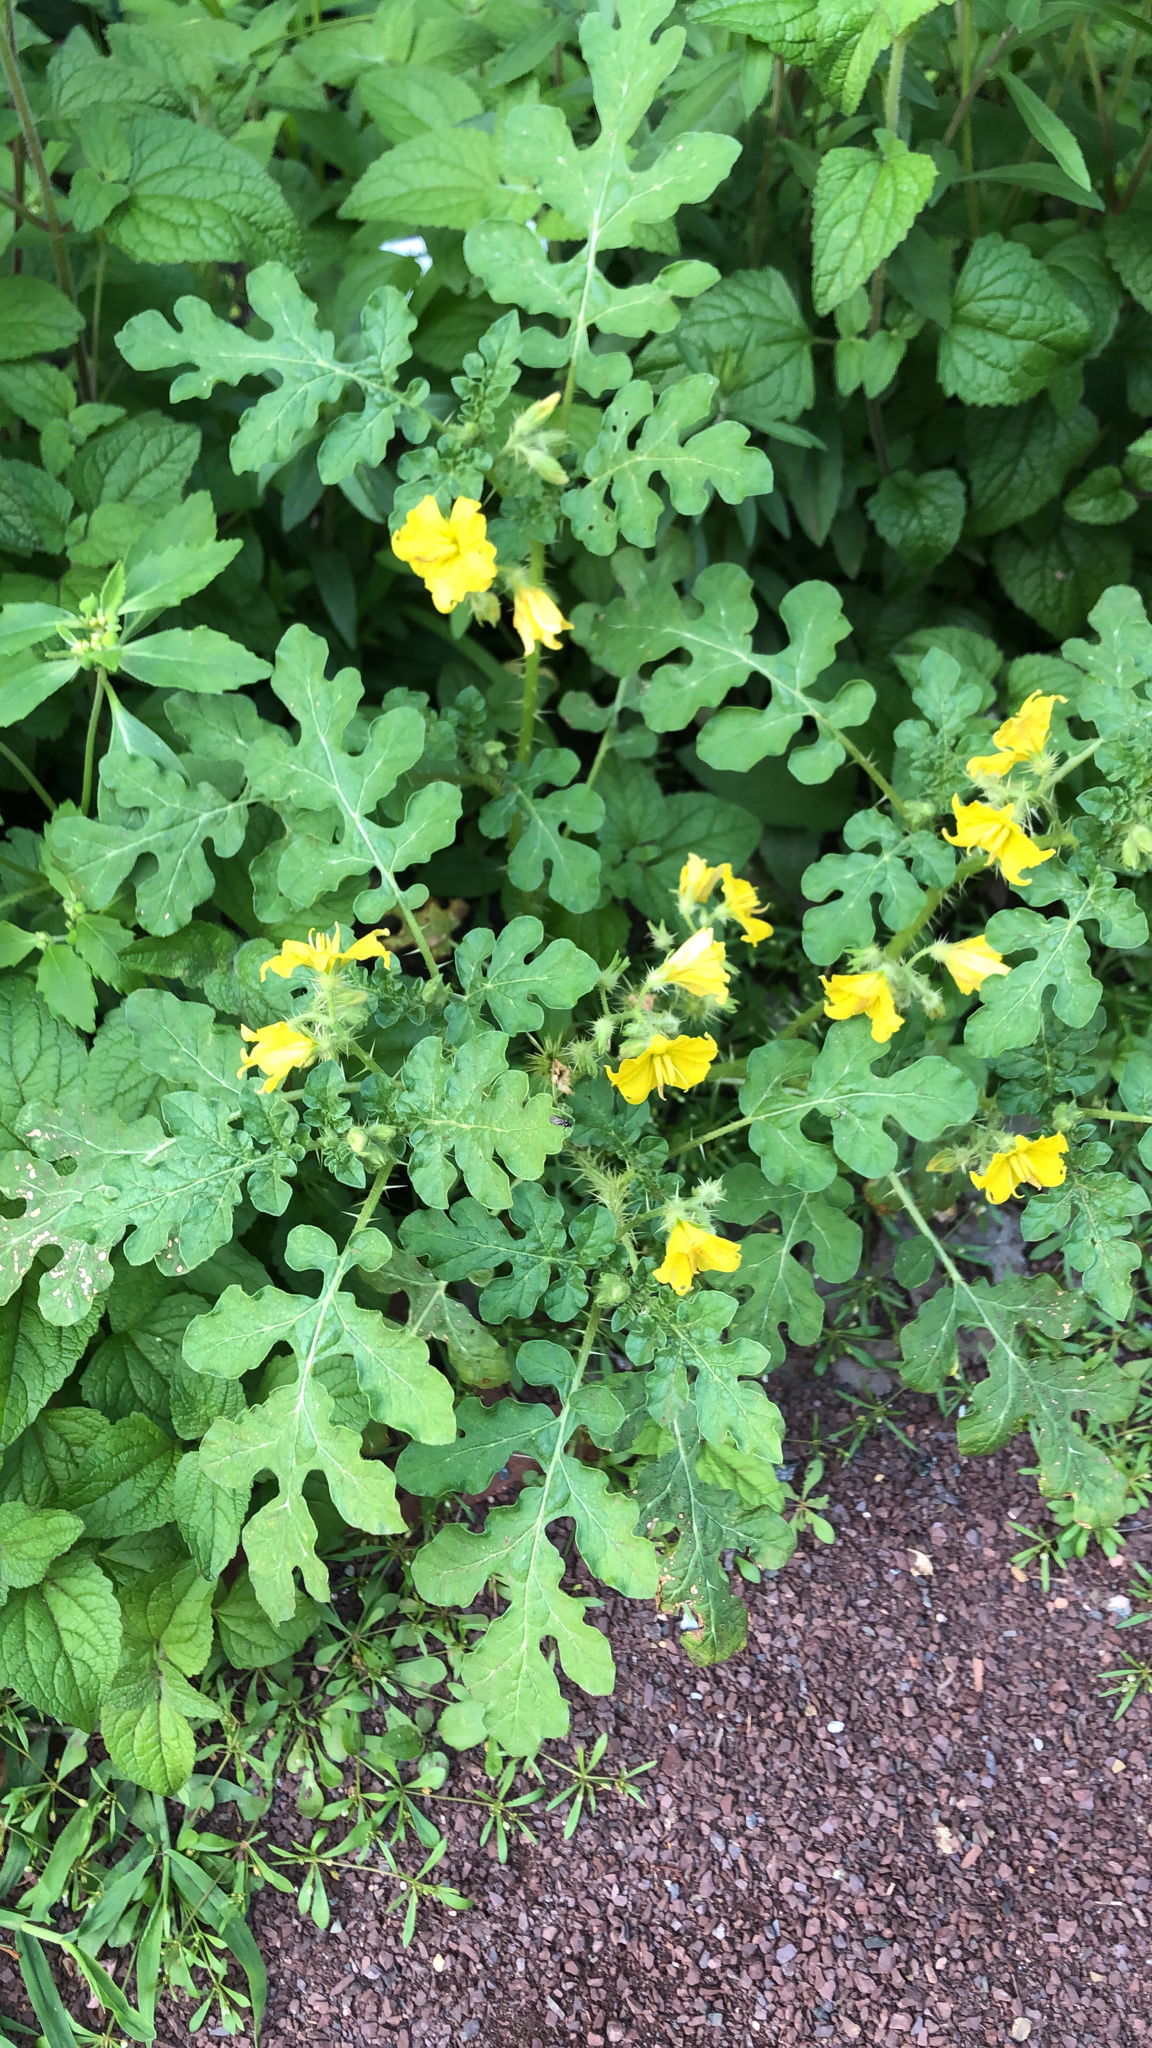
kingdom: Plantae
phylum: Tracheophyta
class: Magnoliopsida
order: Solanales
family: Solanaceae
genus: Solanum
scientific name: Solanum angustifolium
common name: Buffalobur nightshade
